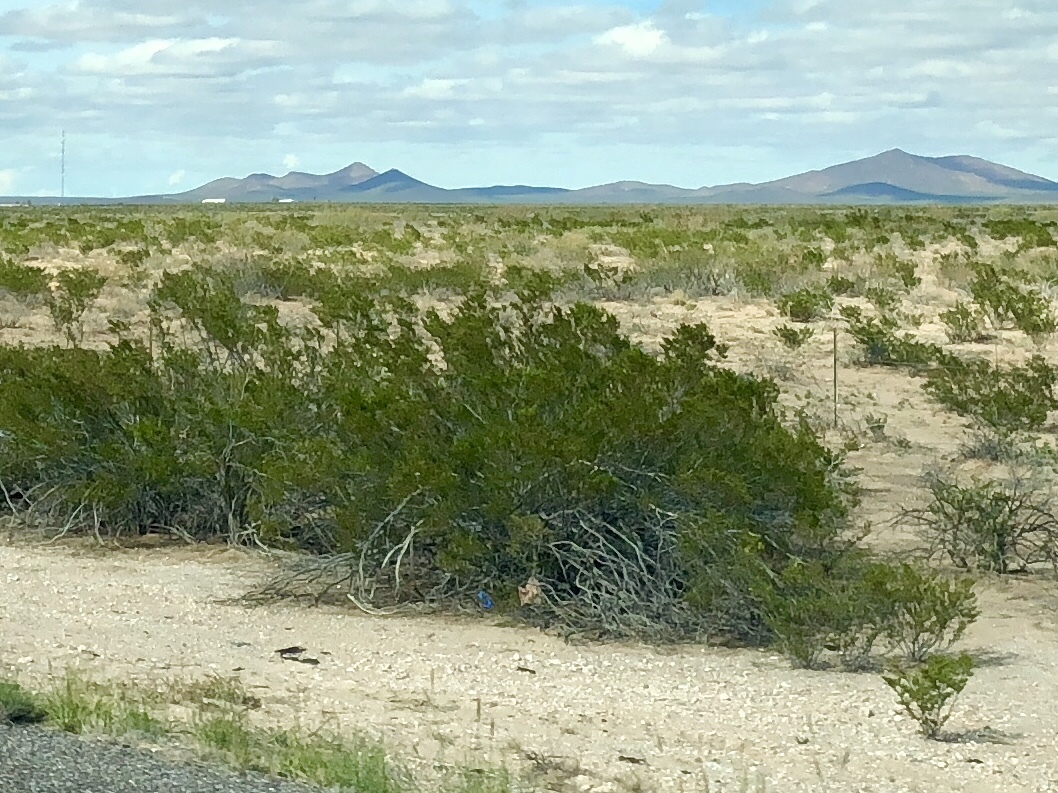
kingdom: Plantae
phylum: Tracheophyta
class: Magnoliopsida
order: Zygophyllales
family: Zygophyllaceae
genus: Larrea
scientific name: Larrea tridentata
